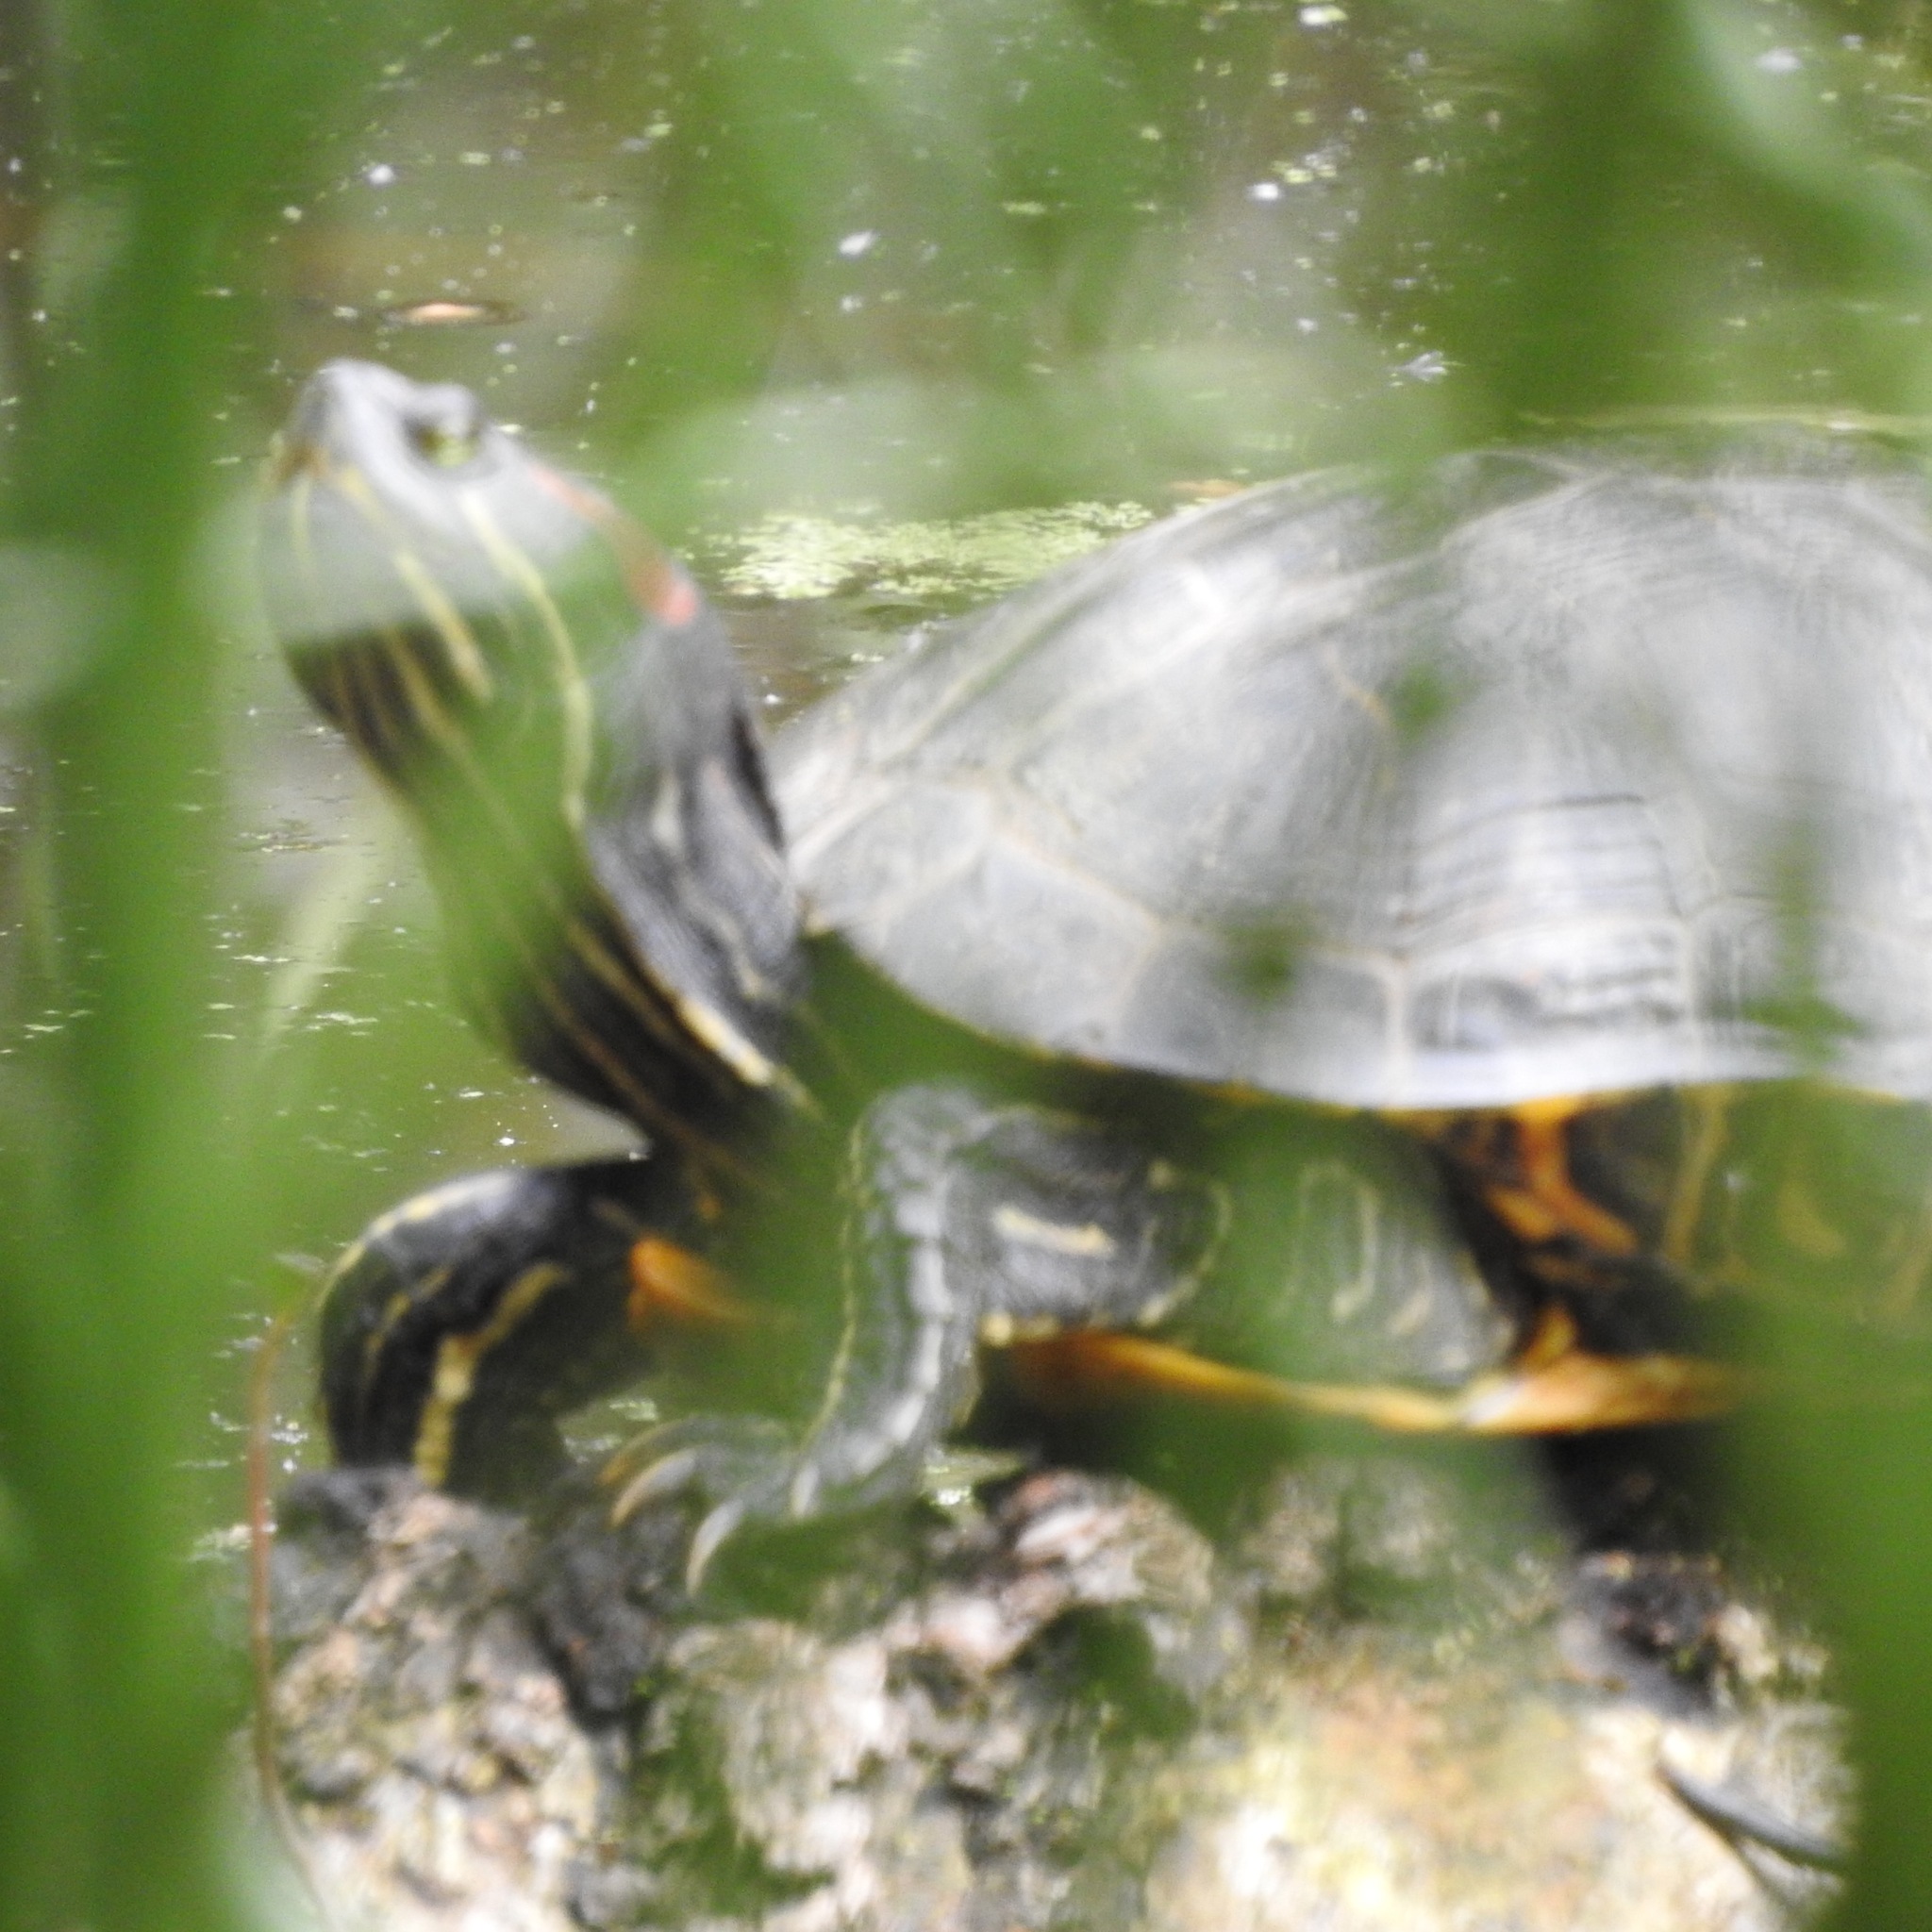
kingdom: Animalia
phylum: Chordata
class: Testudines
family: Emydidae
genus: Trachemys
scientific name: Trachemys scripta
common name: Slider
